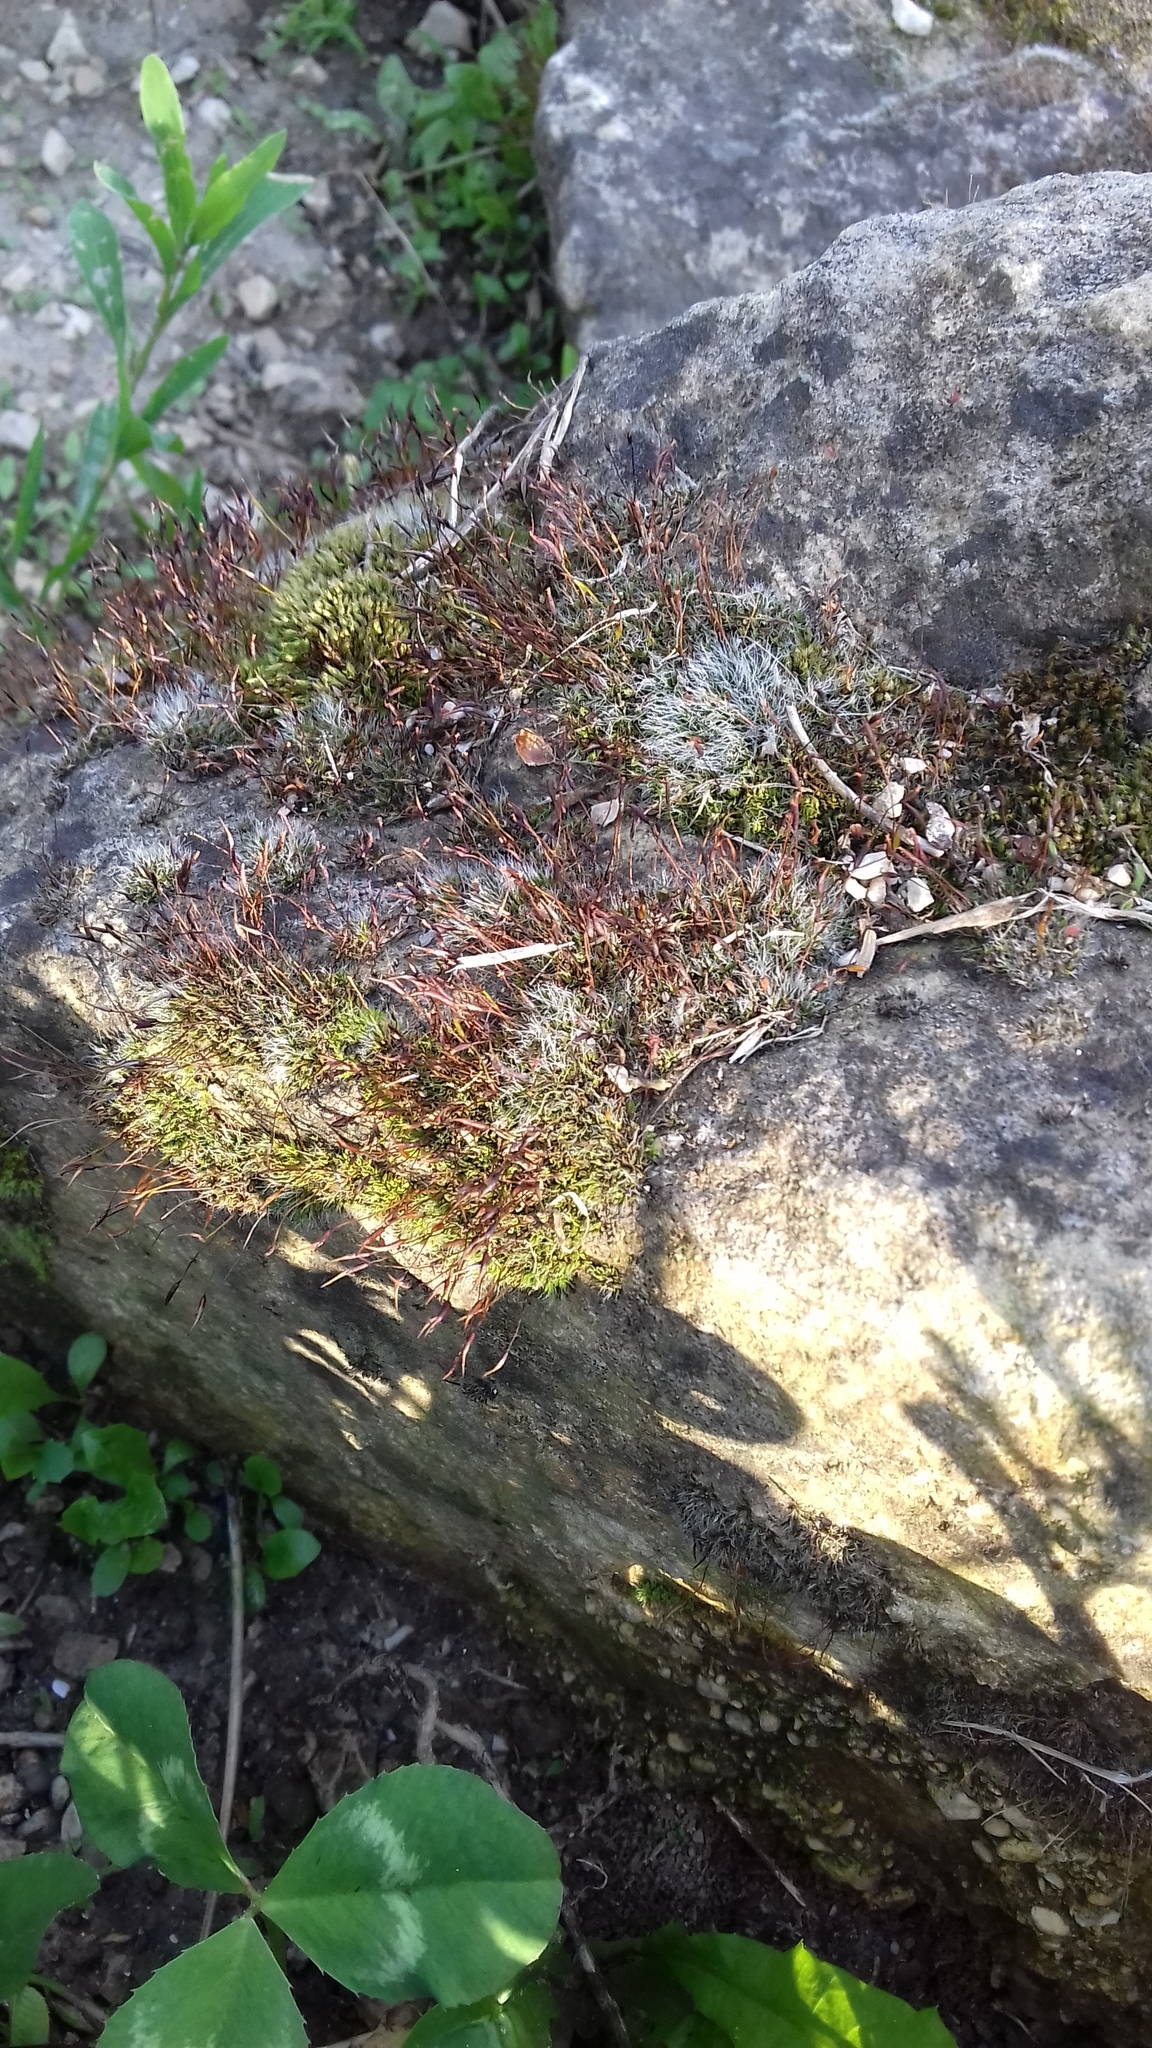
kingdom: Plantae
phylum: Bryophyta
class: Bryopsida
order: Pottiales
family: Pottiaceae
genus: Tortula
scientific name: Tortula muralis
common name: Wall screw-moss
